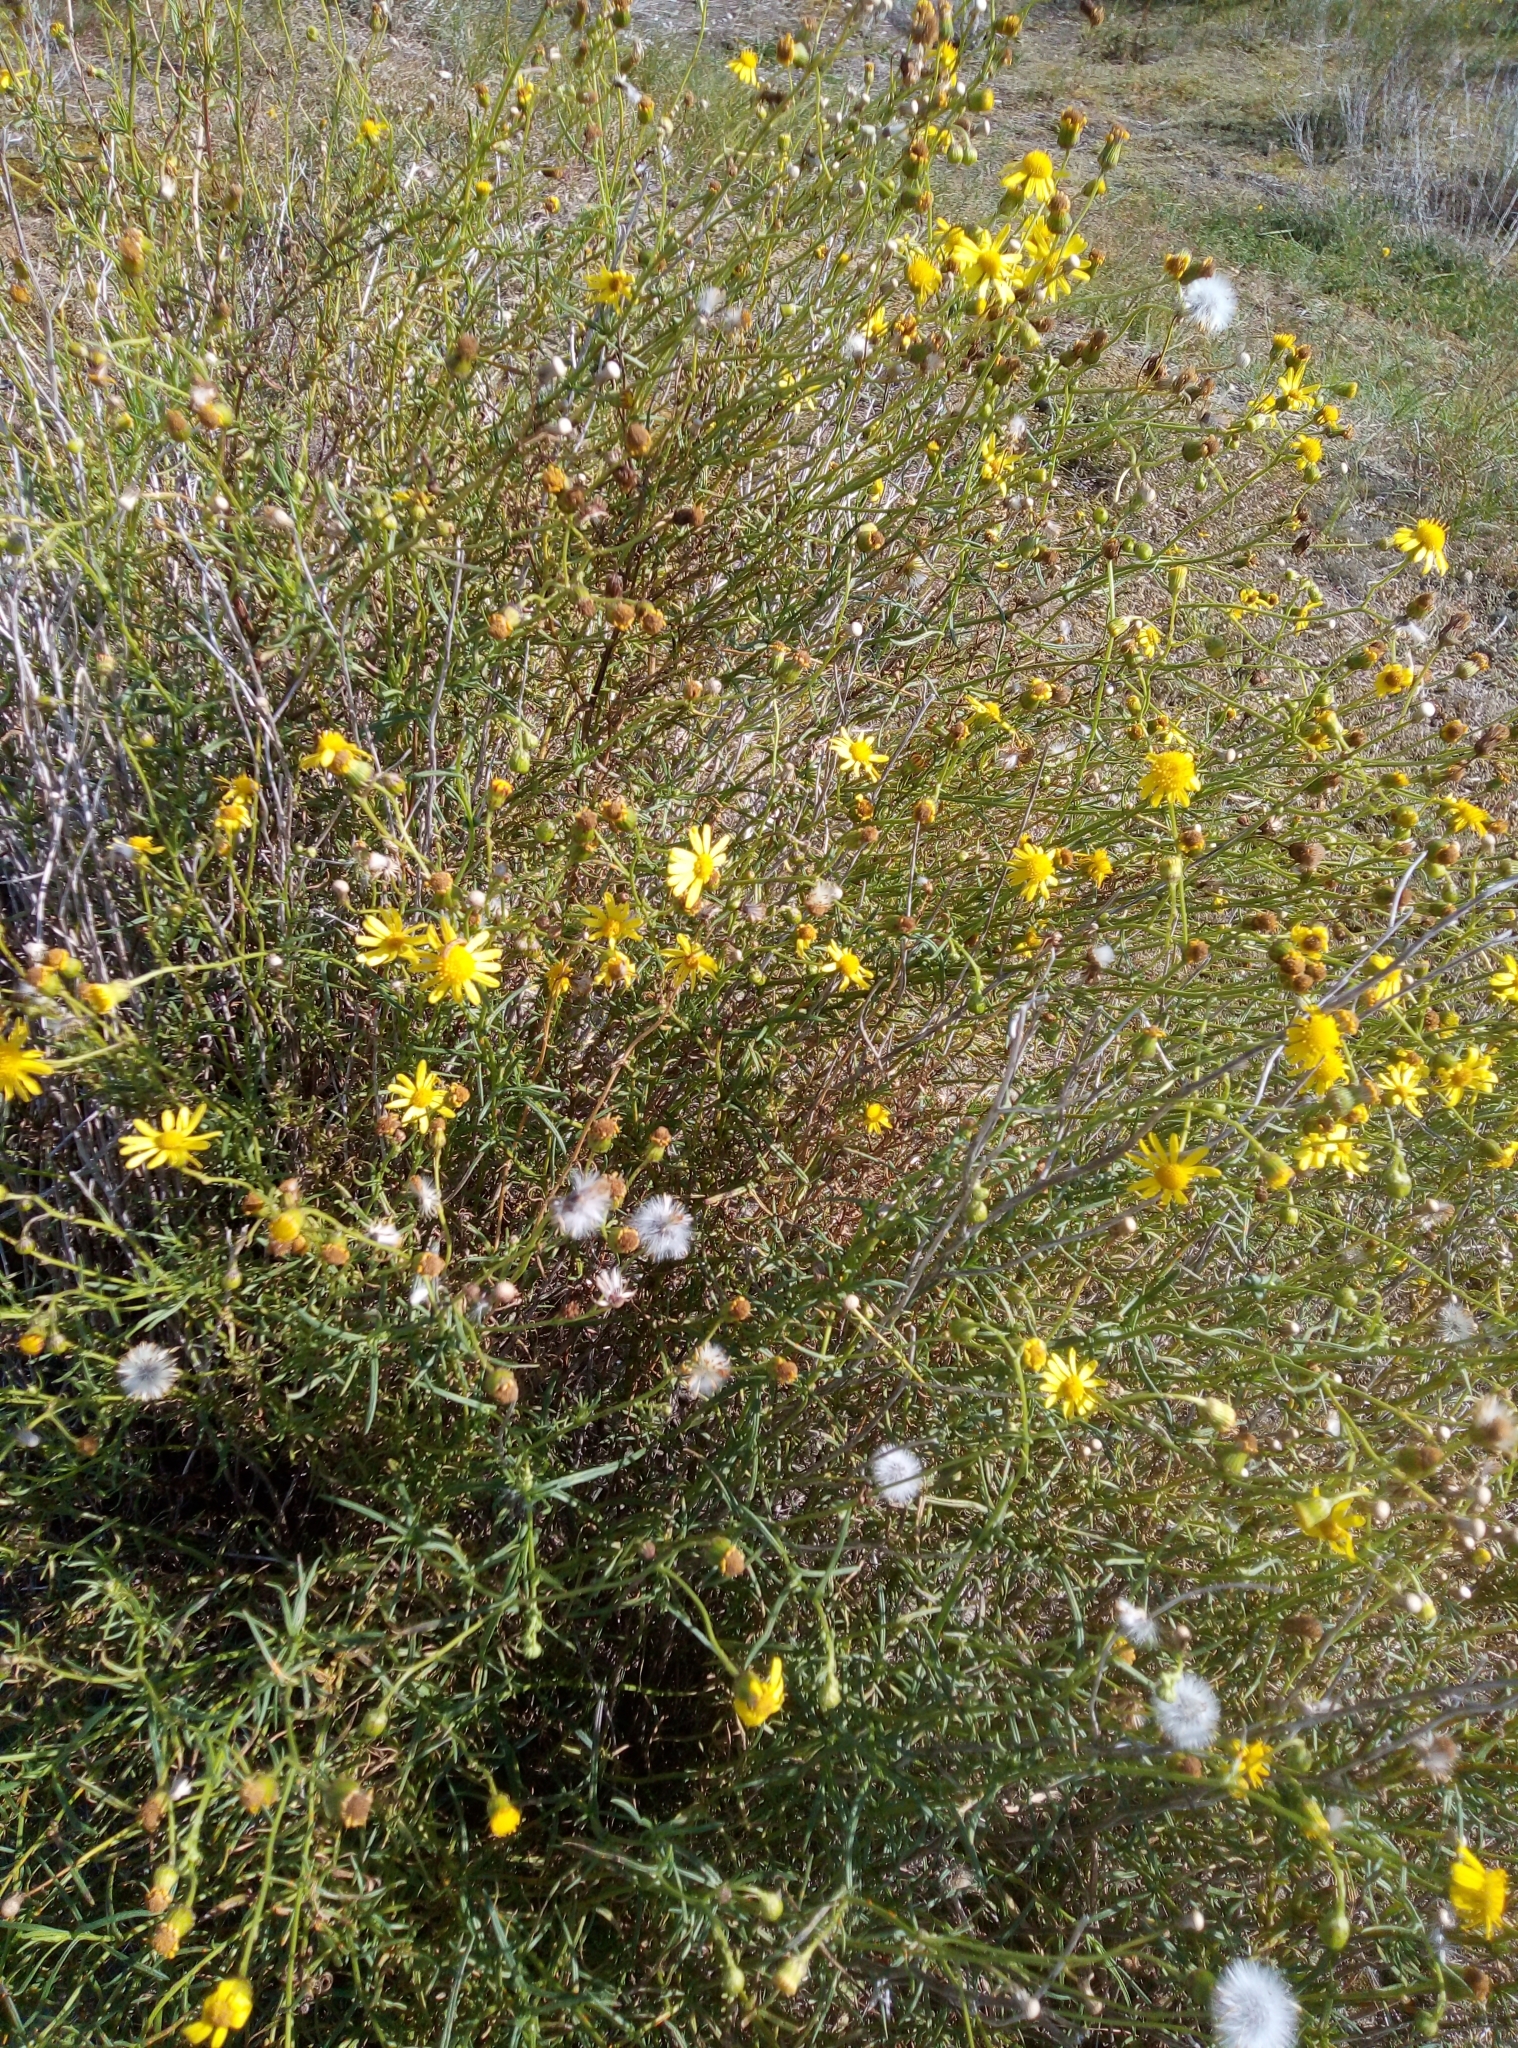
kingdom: Plantae
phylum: Tracheophyta
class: Magnoliopsida
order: Asterales
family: Asteraceae
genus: Senecio
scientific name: Senecio inaequidens
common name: Narrow-leaved ragwort
